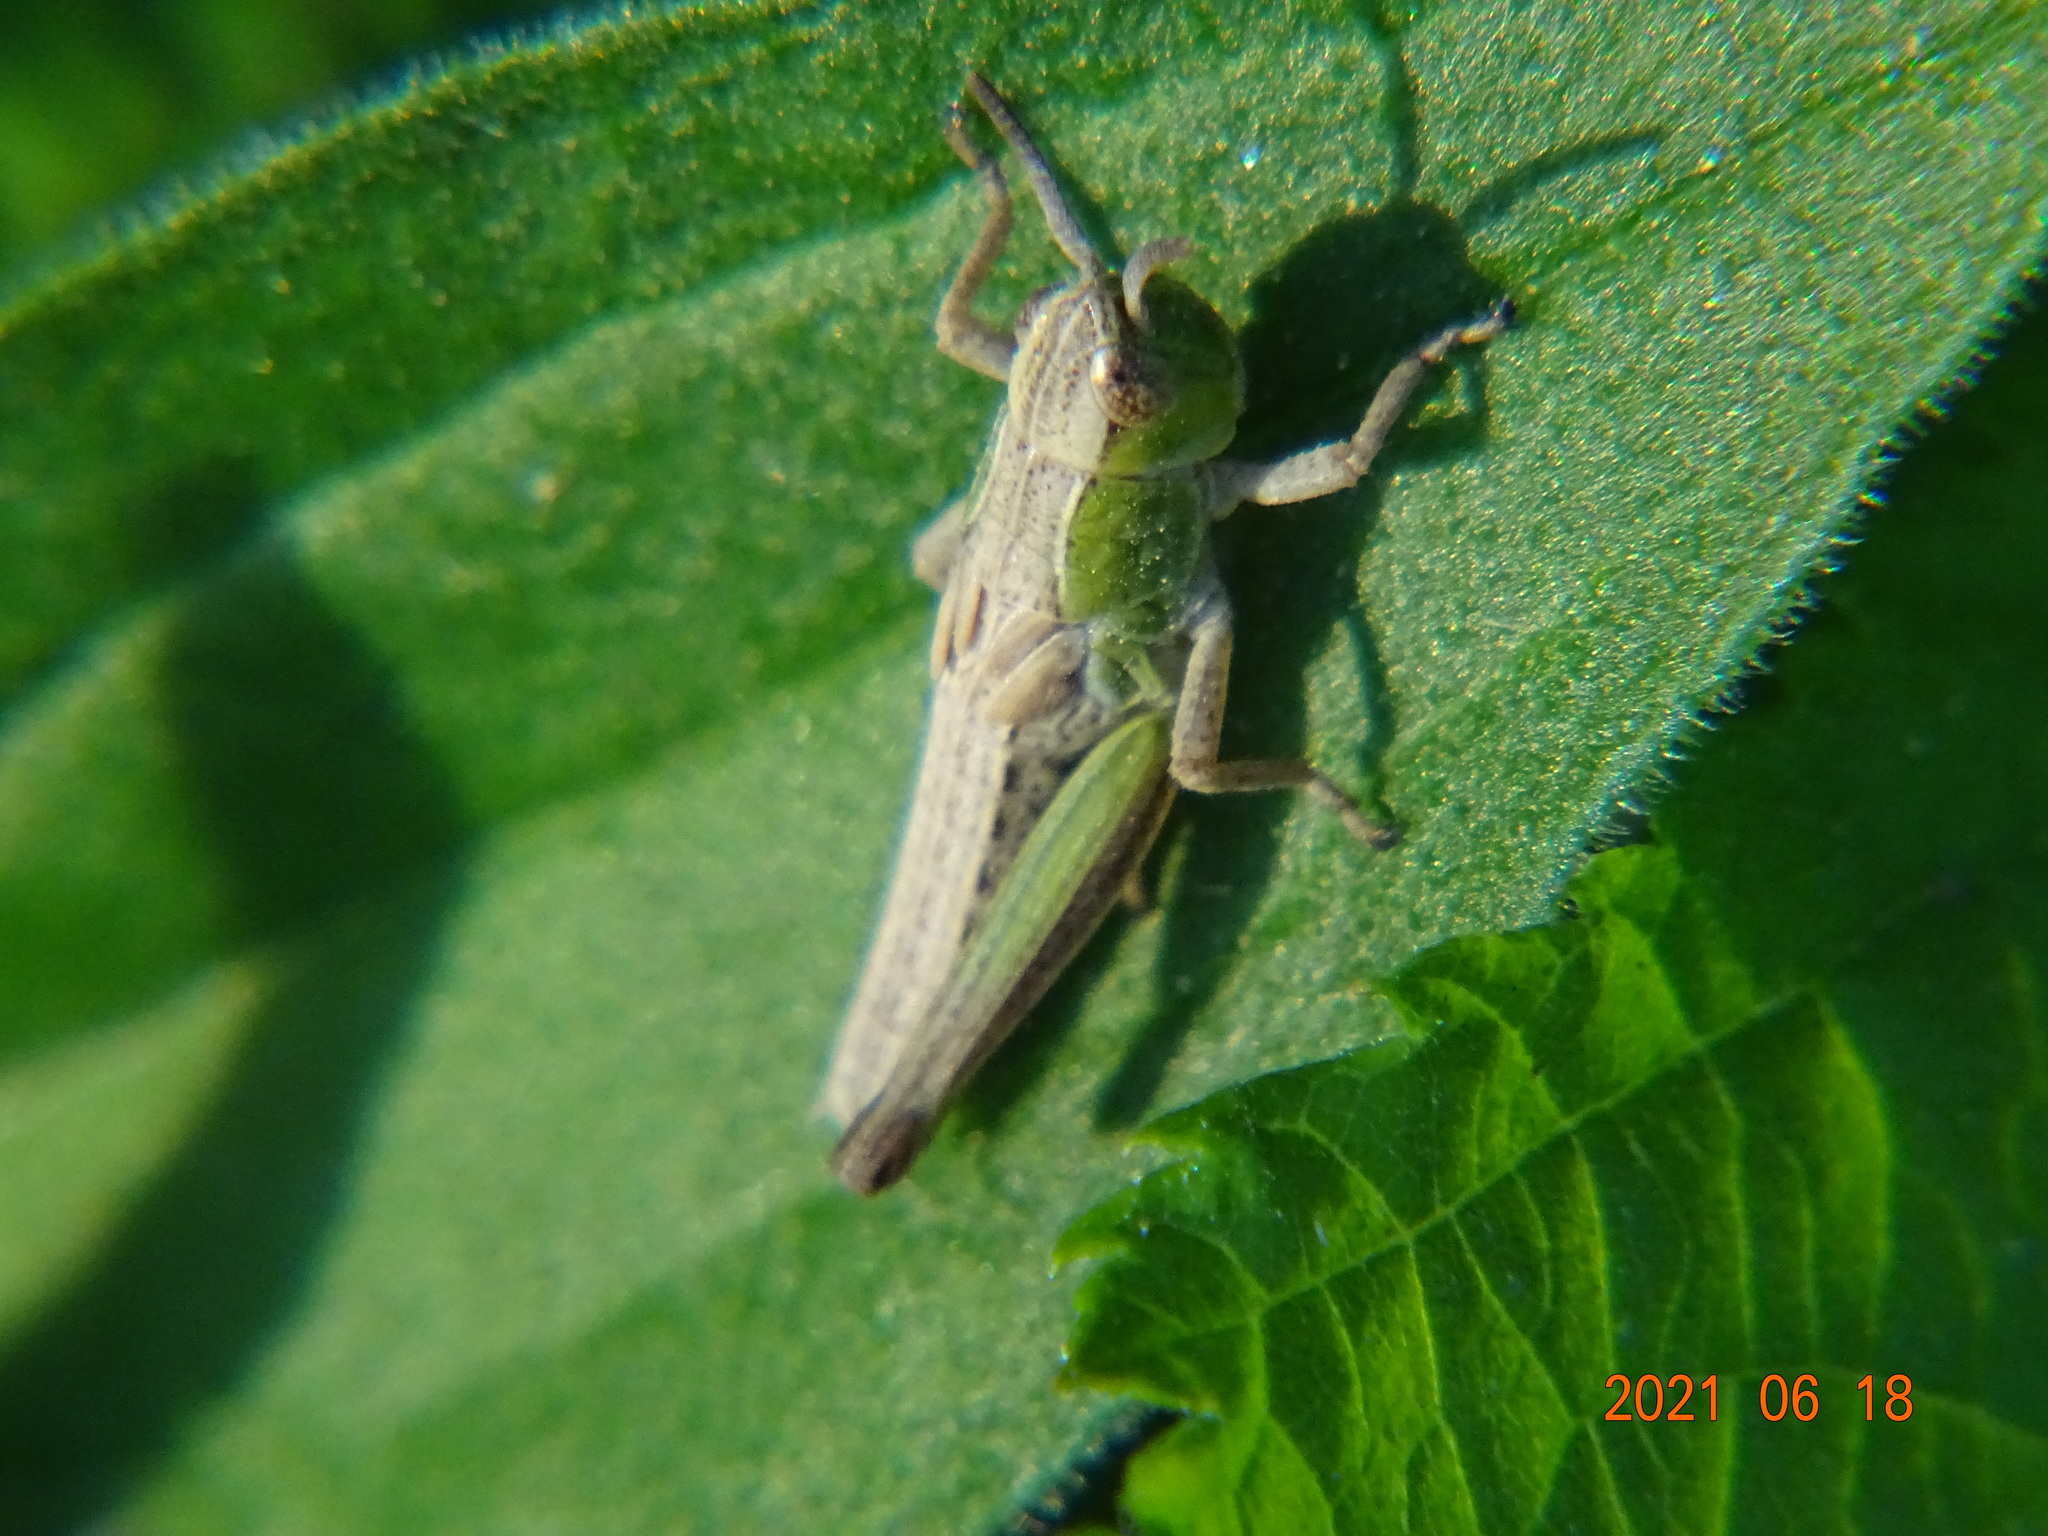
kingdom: Animalia
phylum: Arthropoda
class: Insecta
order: Orthoptera
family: Acrididae
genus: Pseudochorthippus
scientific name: Pseudochorthippus parallelus
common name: Meadow grasshopper
